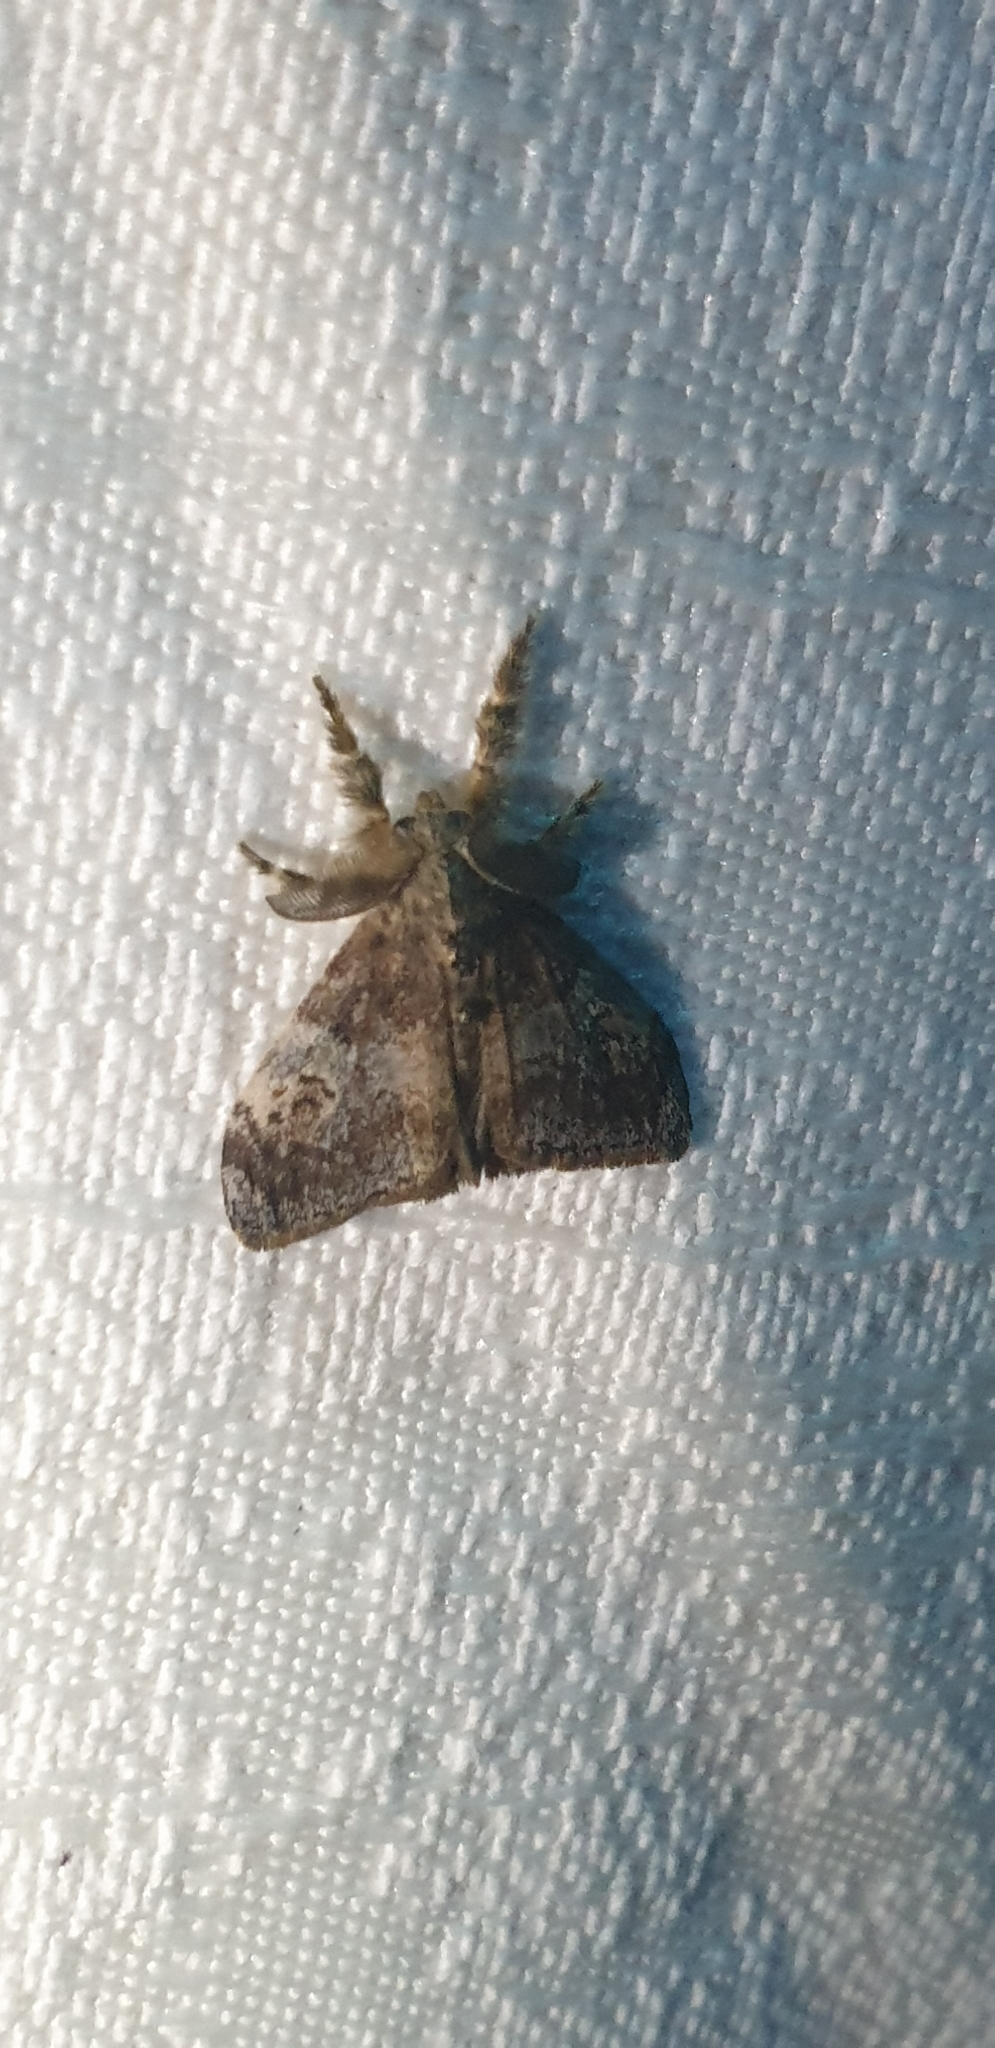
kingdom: Animalia
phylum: Arthropoda
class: Insecta
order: Lepidoptera
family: Erebidae
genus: Orgyia
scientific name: Orgyia australis
